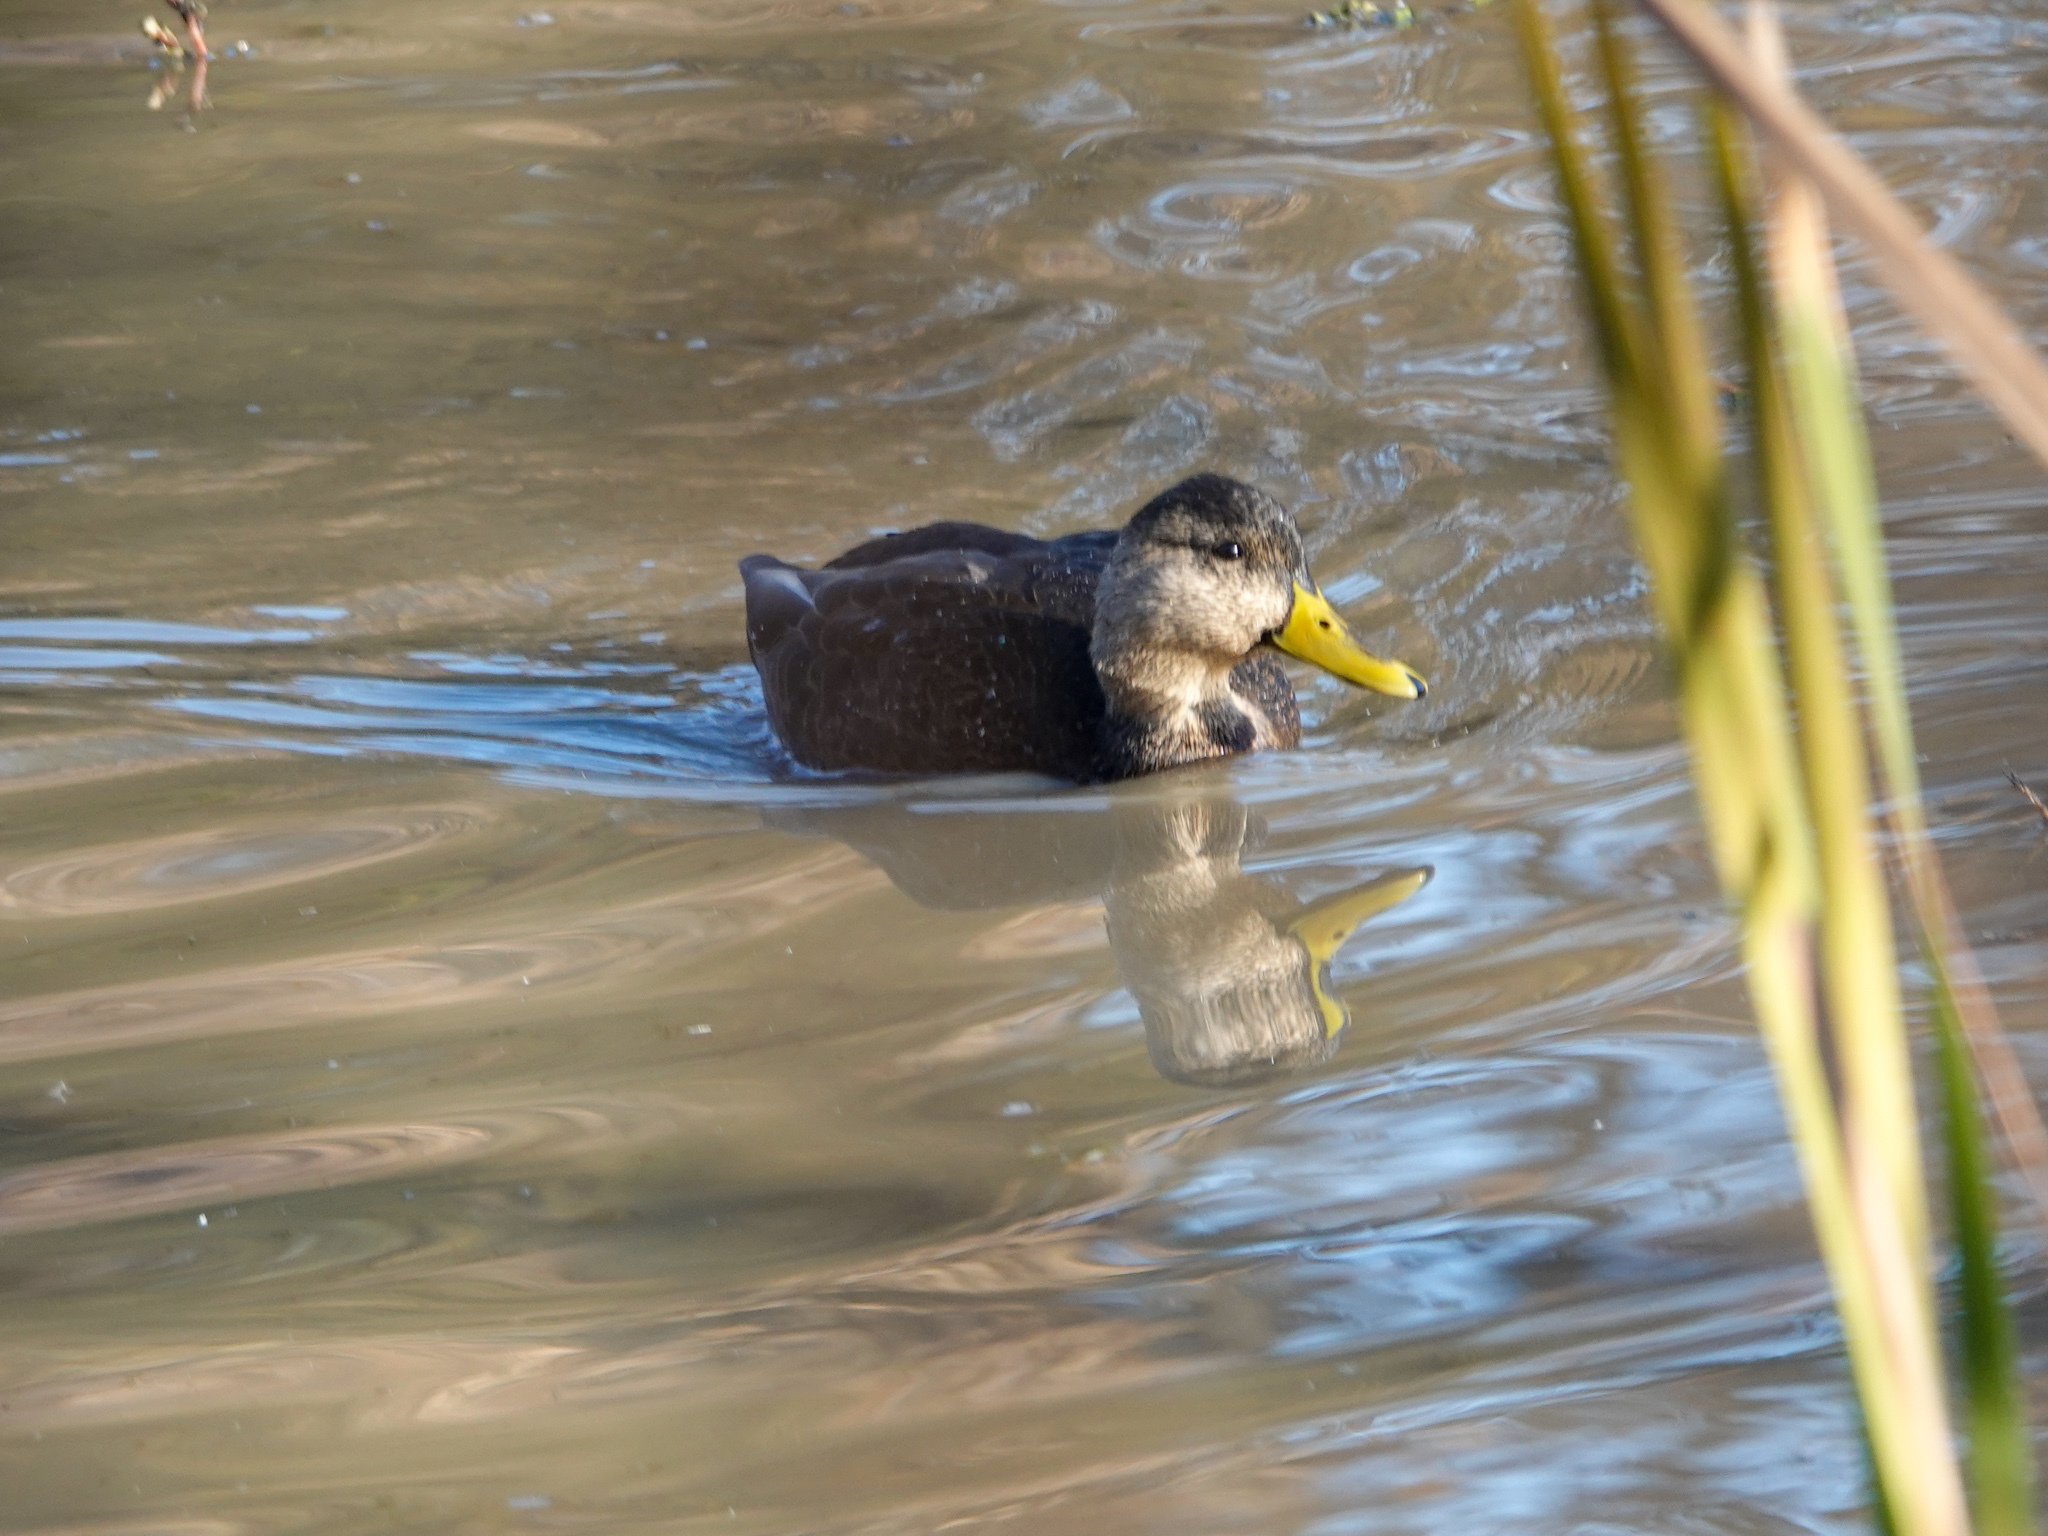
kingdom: Animalia
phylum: Chordata
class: Aves
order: Anseriformes
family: Anatidae
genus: Anas
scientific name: Anas rubripes
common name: American black duck
